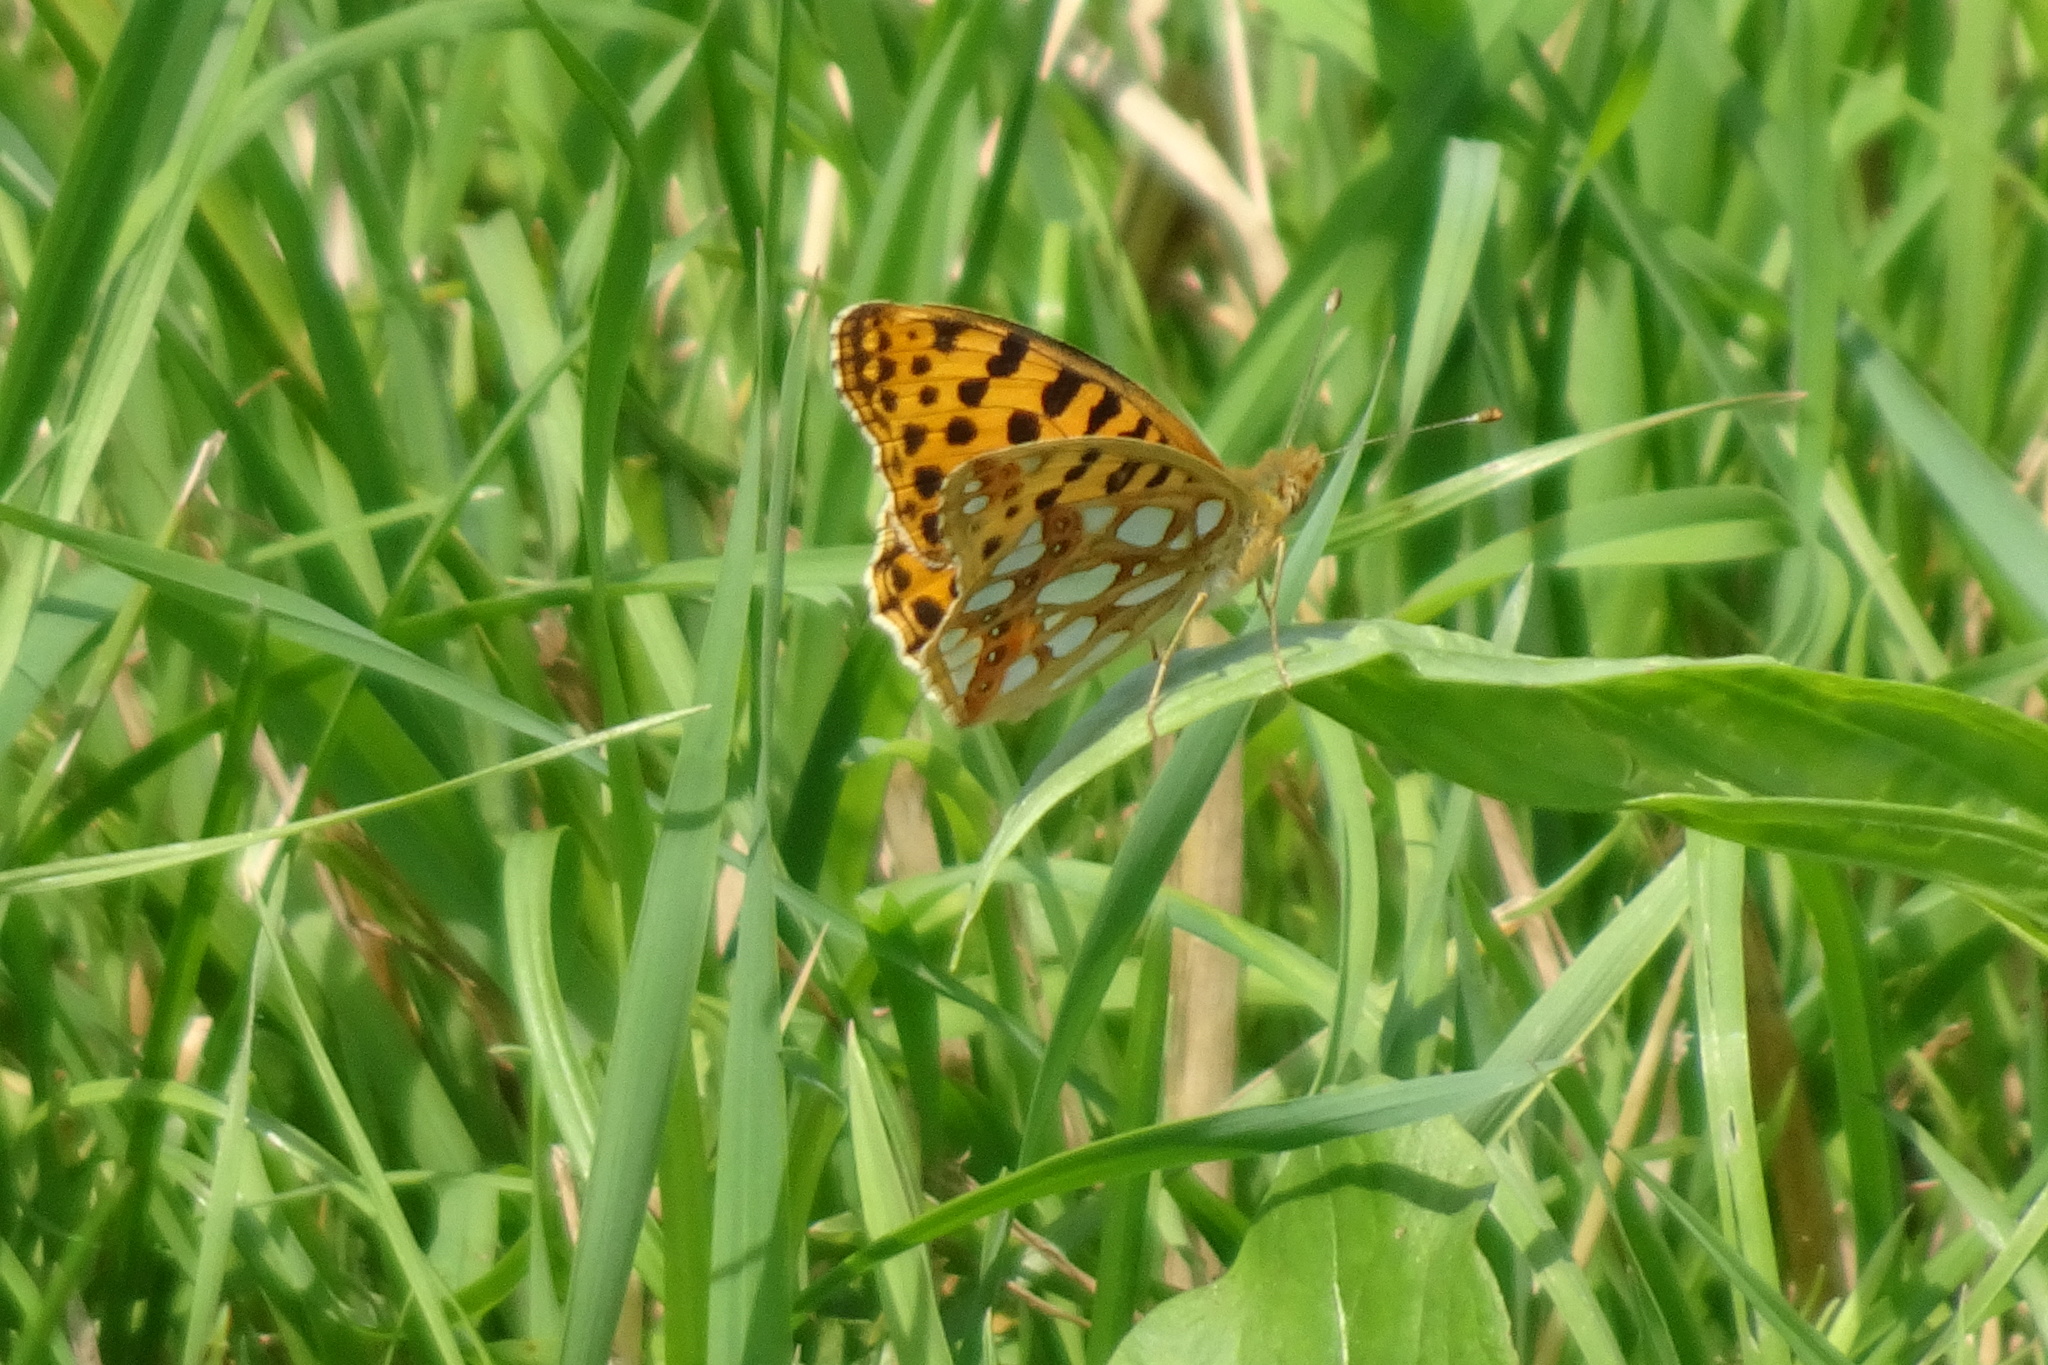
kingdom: Animalia
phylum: Arthropoda
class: Insecta
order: Lepidoptera
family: Nymphalidae
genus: Issoria
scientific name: Issoria lathonia
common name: Queen of spain fritillary
